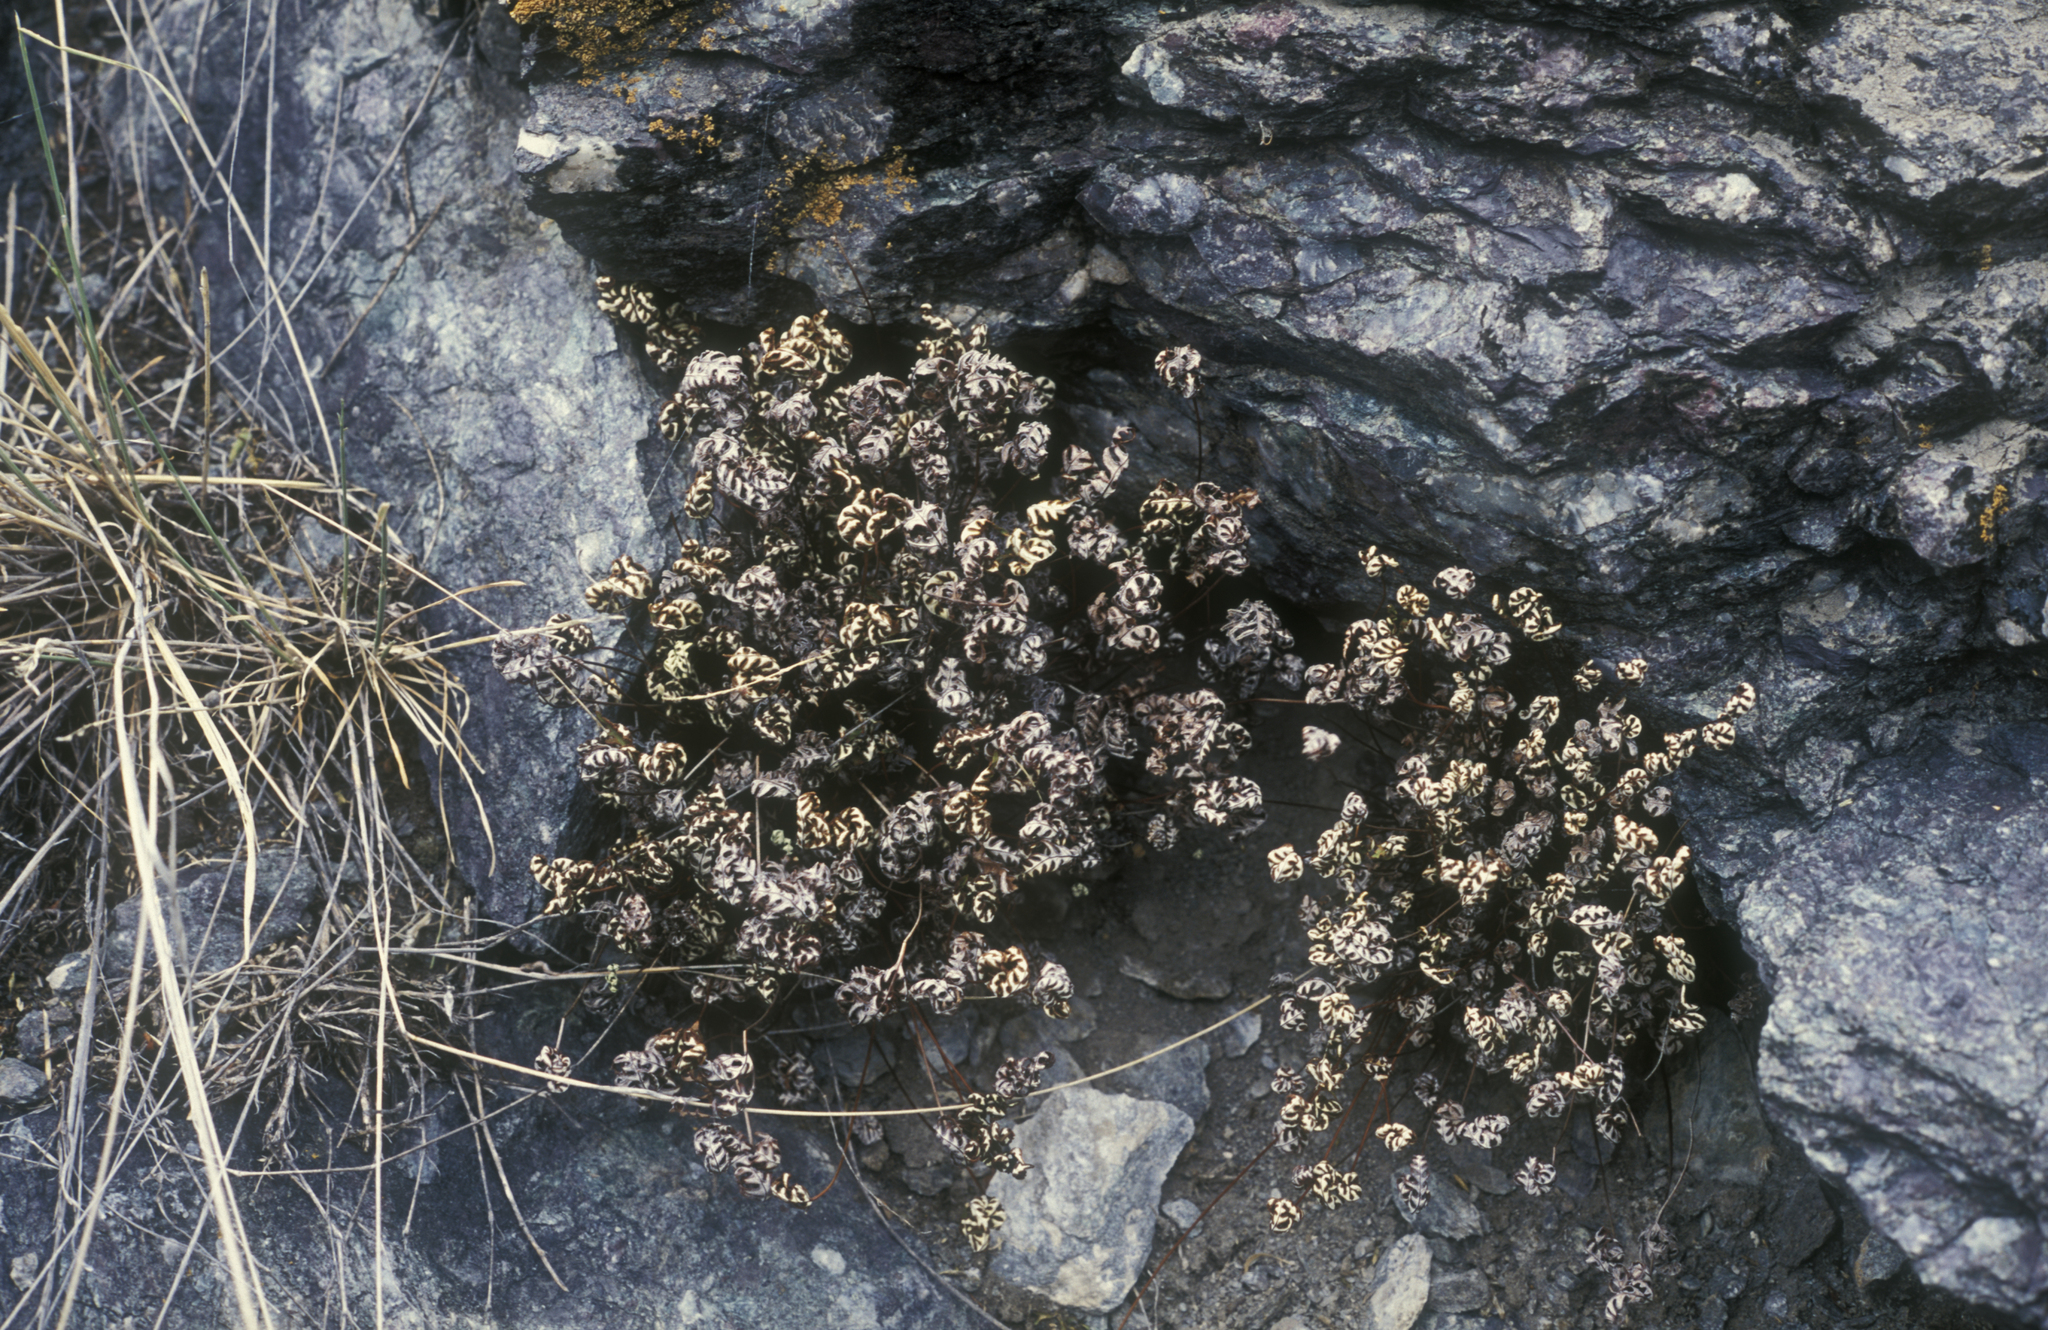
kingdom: Plantae
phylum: Tracheophyta
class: Polypodiopsida
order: Polypodiales
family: Pteridaceae
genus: Aleuritopteris
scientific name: Aleuritopteris argentea
